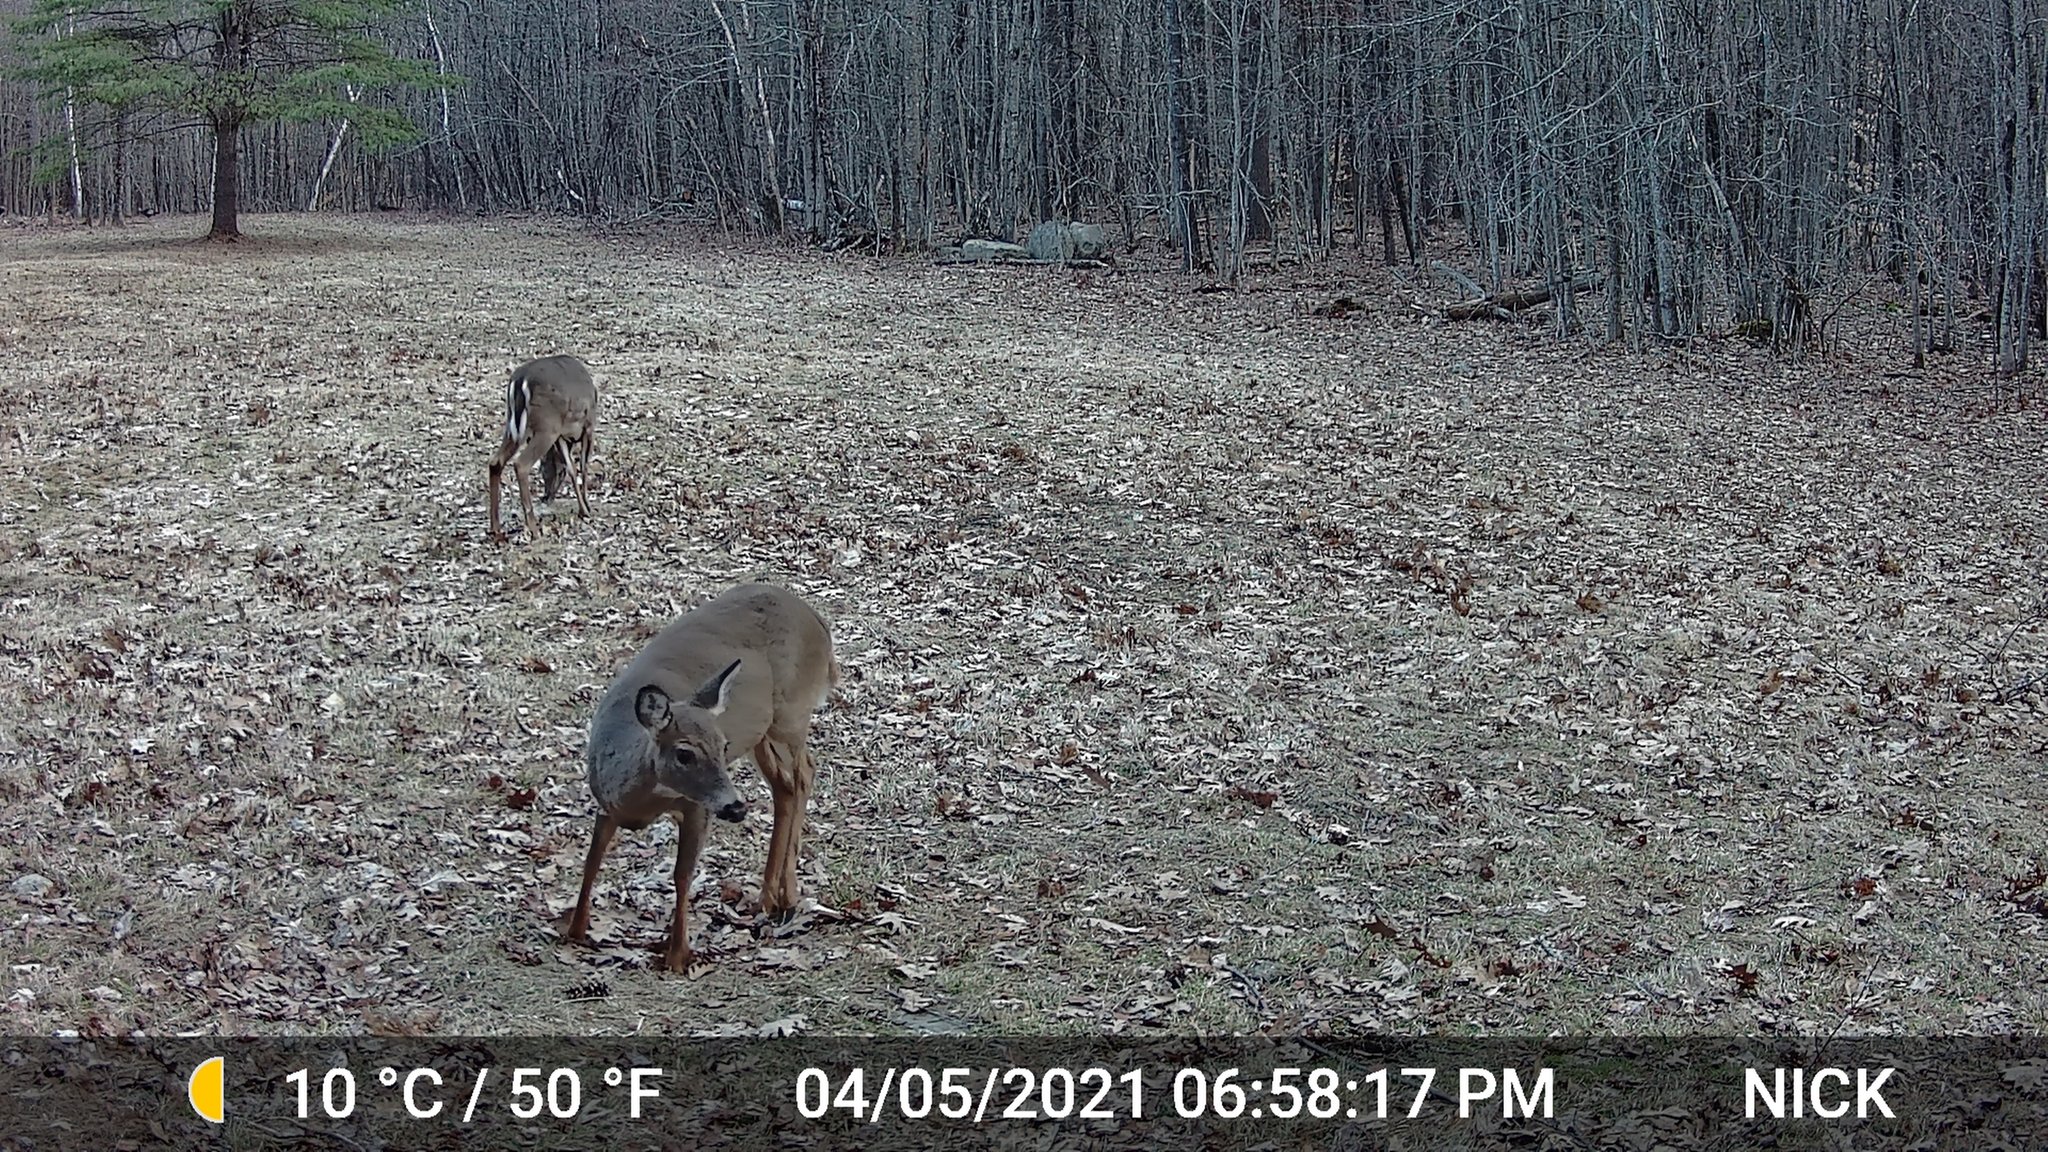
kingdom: Animalia
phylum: Chordata
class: Mammalia
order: Artiodactyla
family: Cervidae
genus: Odocoileus
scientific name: Odocoileus virginianus
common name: White-tailed deer
